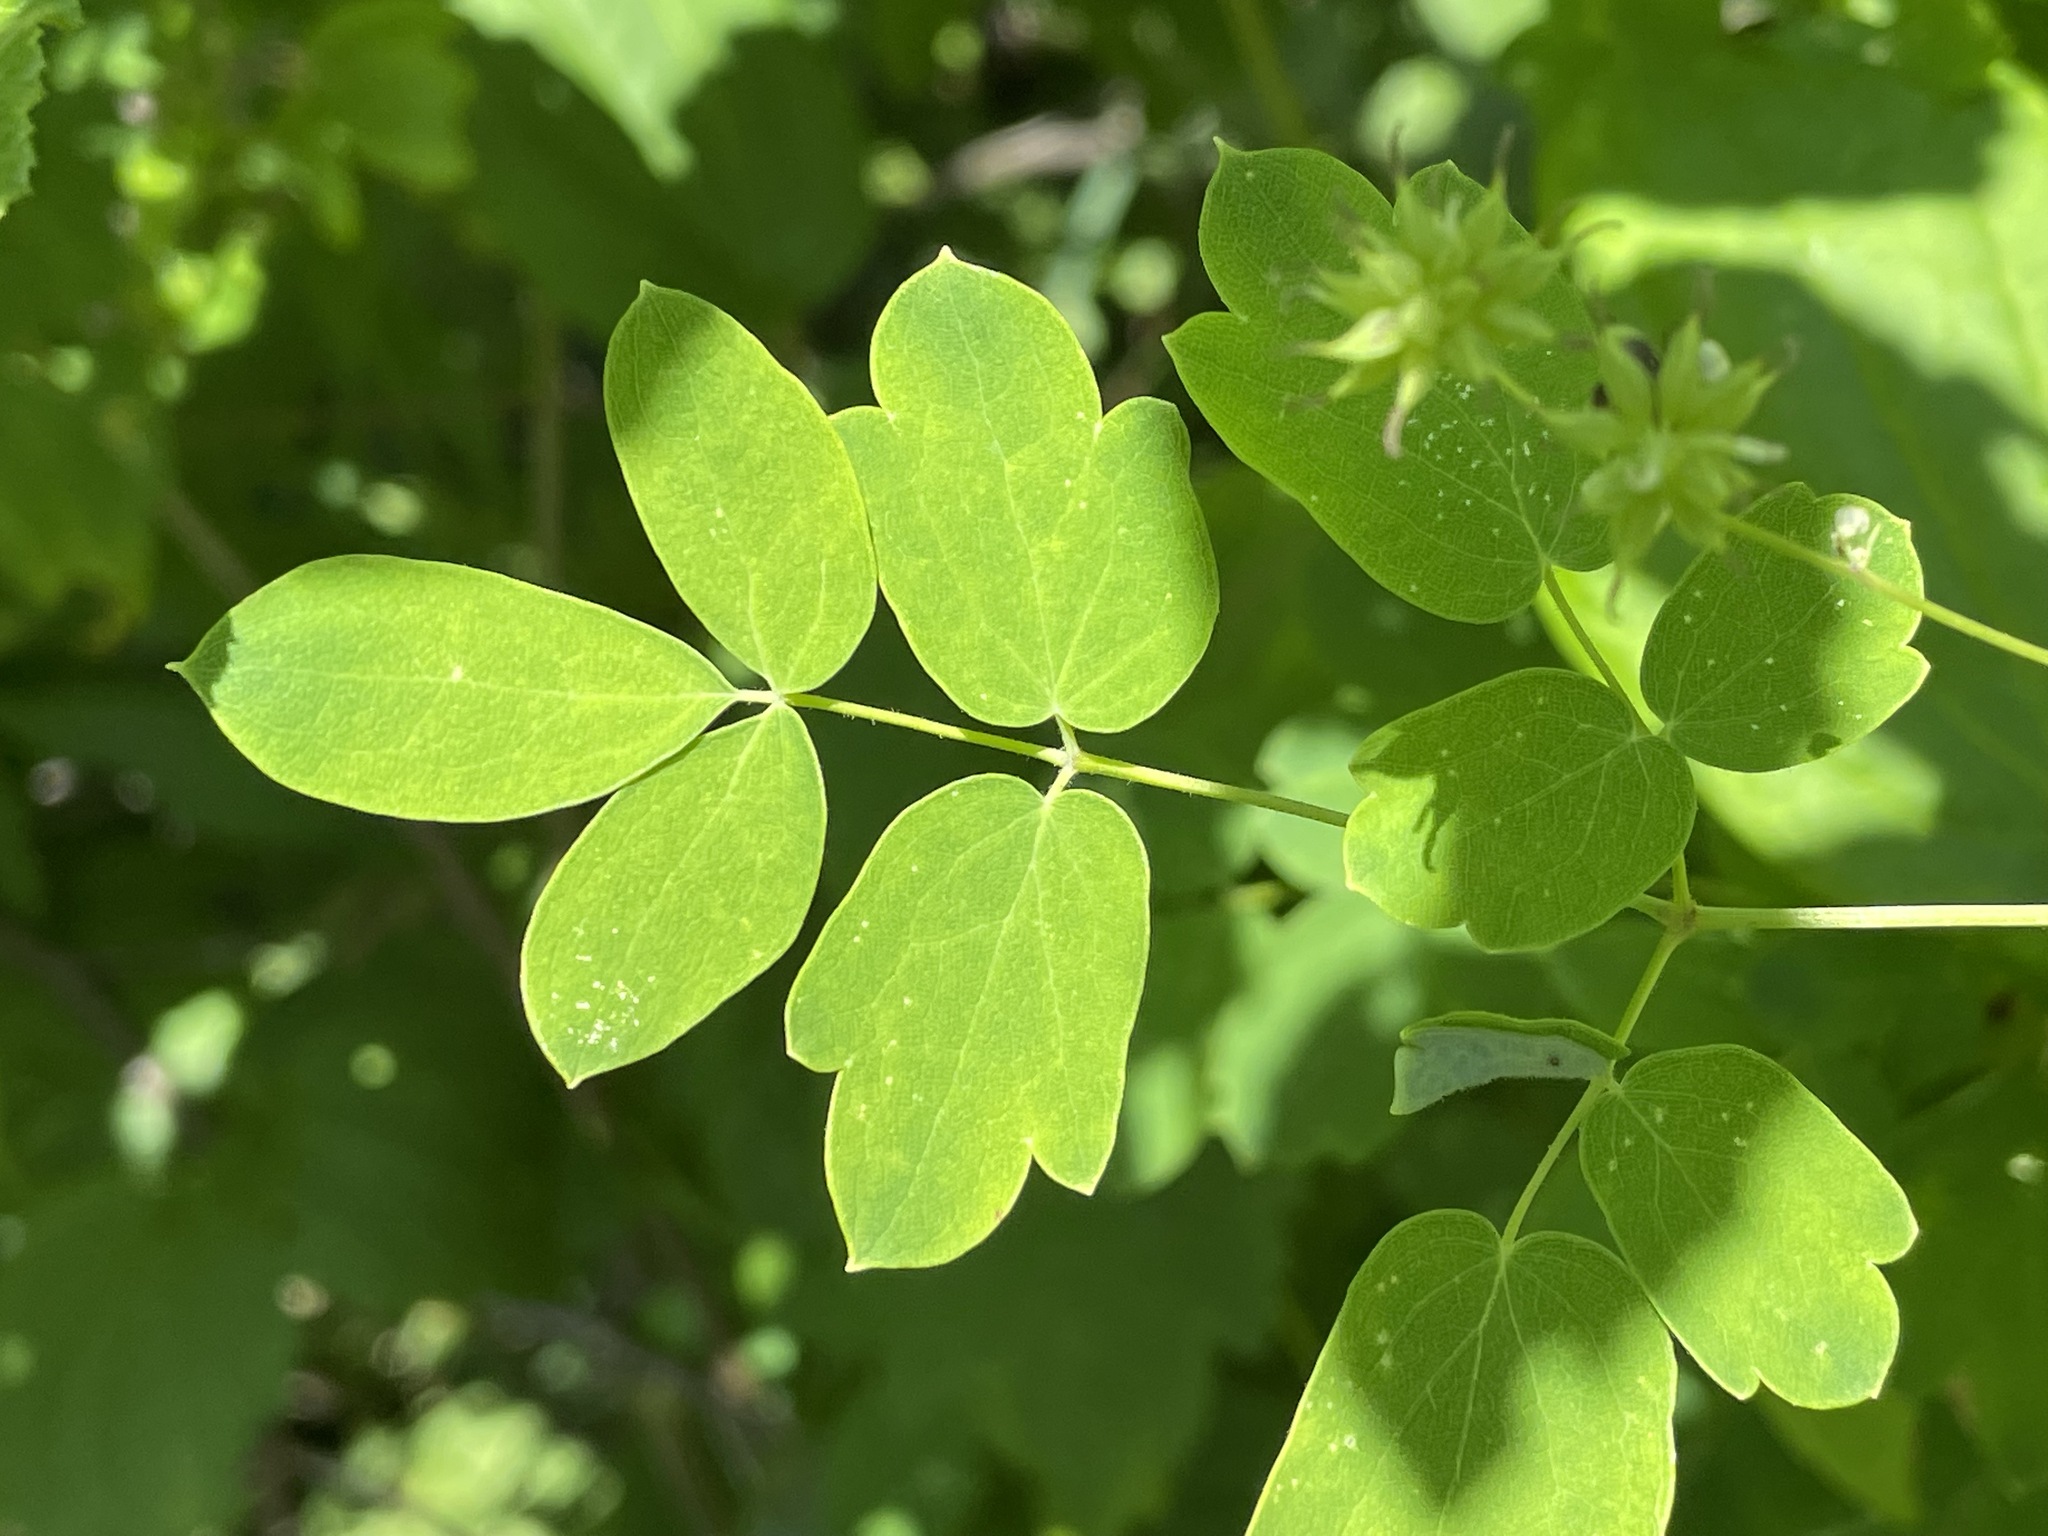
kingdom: Plantae
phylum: Tracheophyta
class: Magnoliopsida
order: Ranunculales
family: Ranunculaceae
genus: Thalictrum
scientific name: Thalictrum pubescens
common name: King-of-the-meadow
